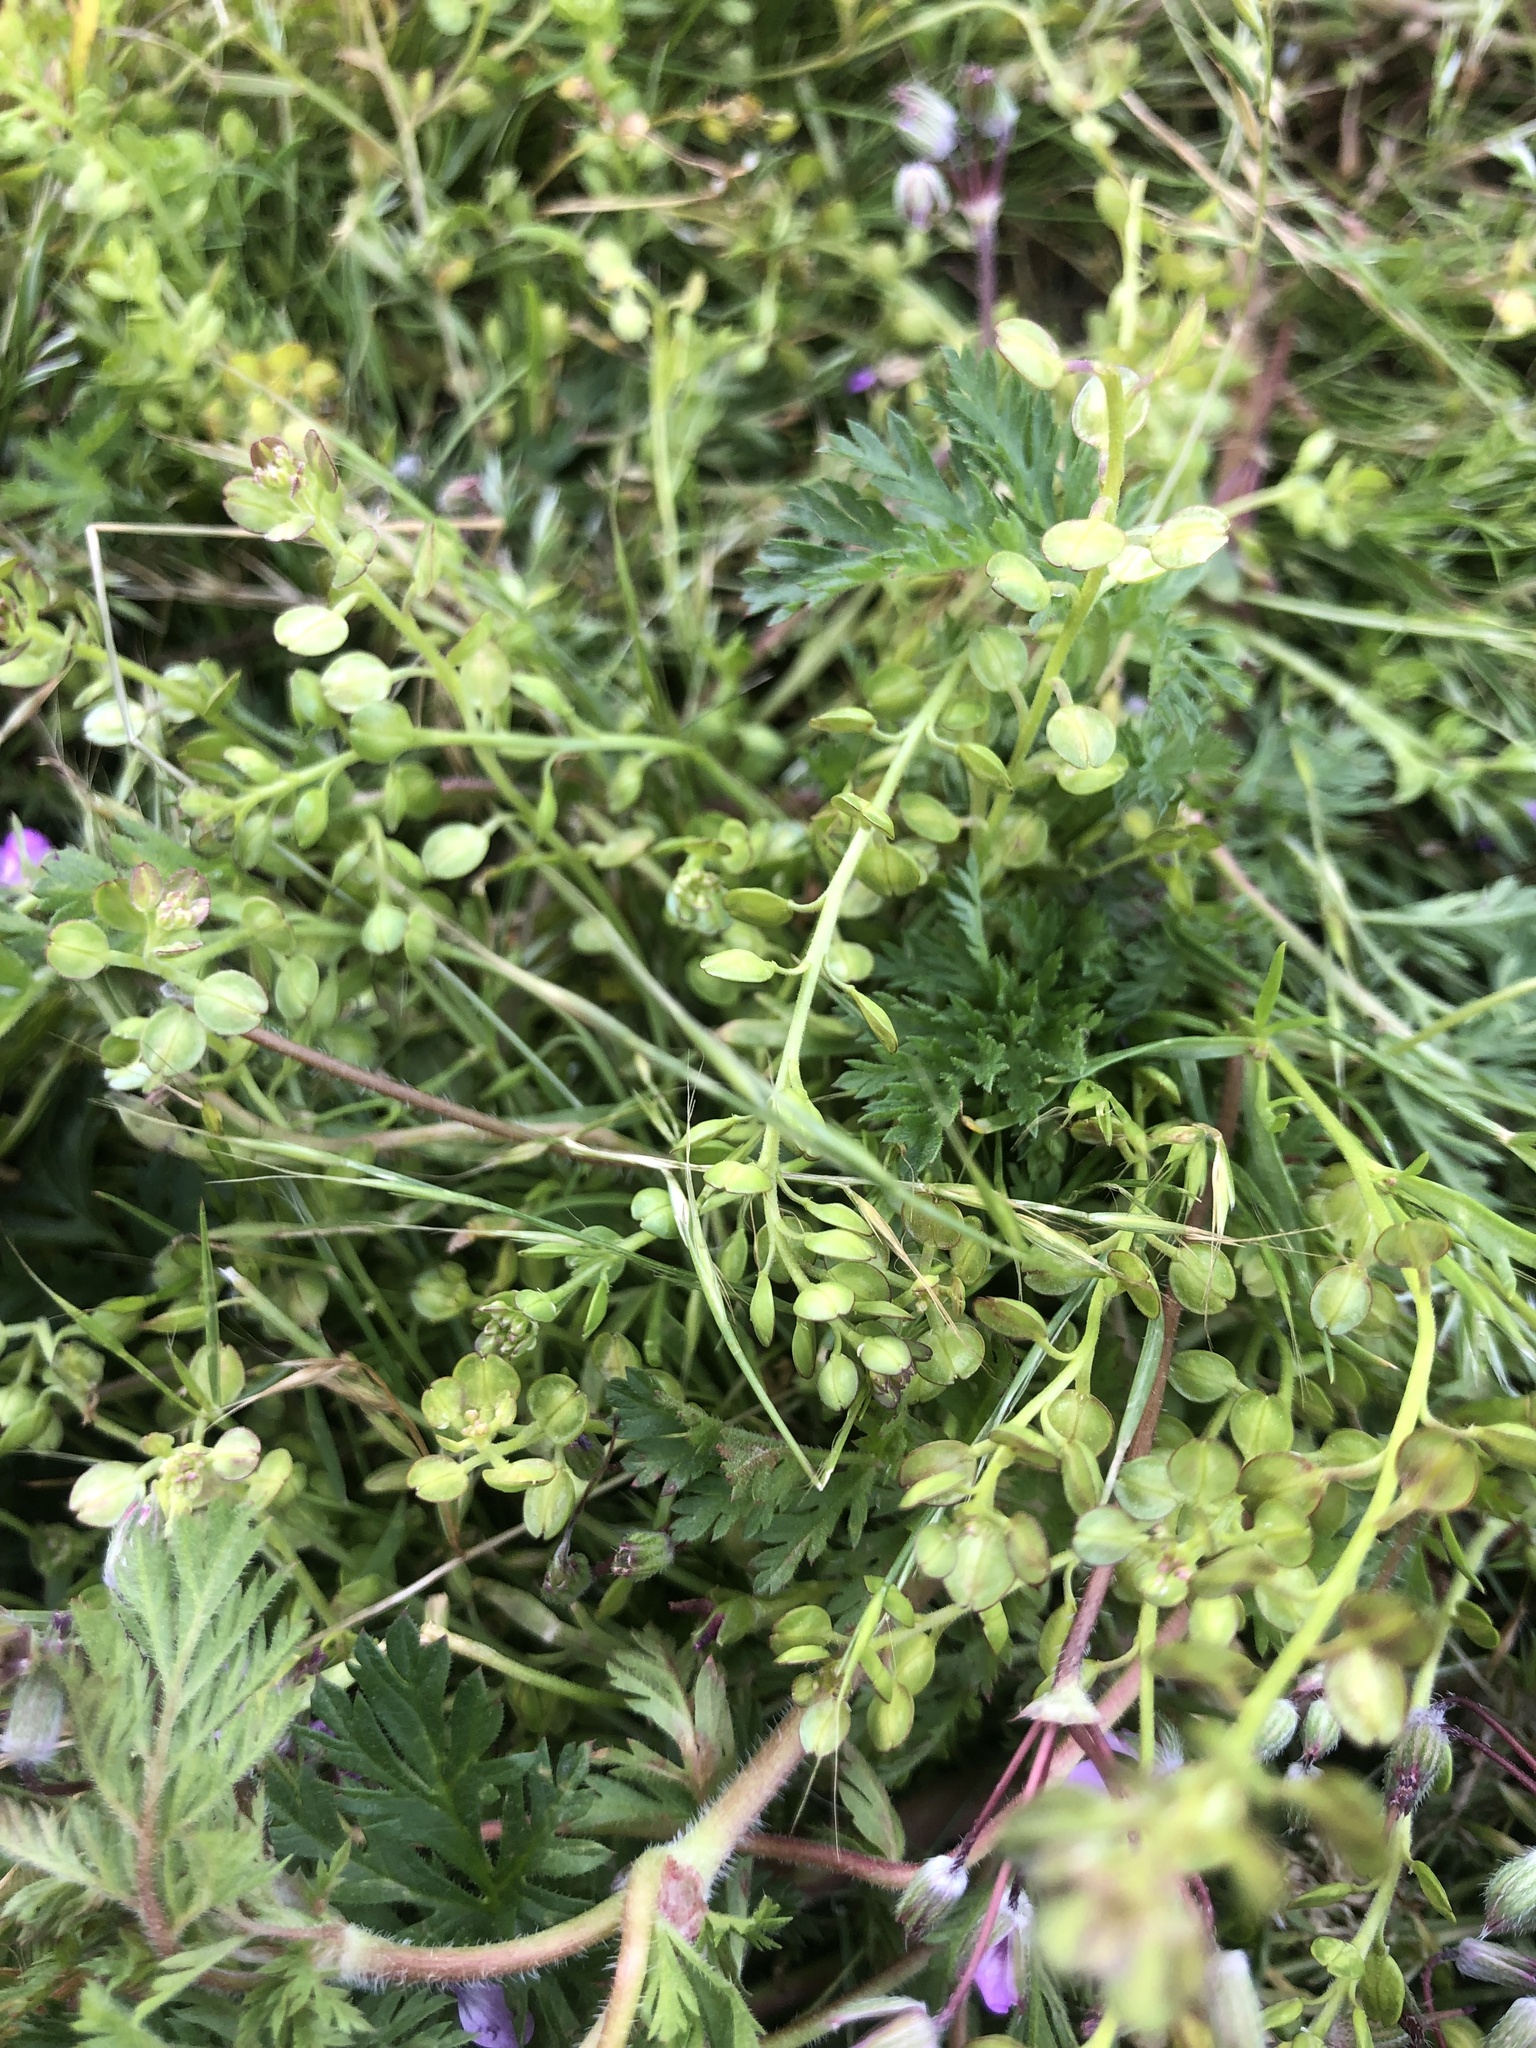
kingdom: Plantae
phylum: Tracheophyta
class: Magnoliopsida
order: Brassicales
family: Brassicaceae
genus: Lepidium
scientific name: Lepidium nitidum
